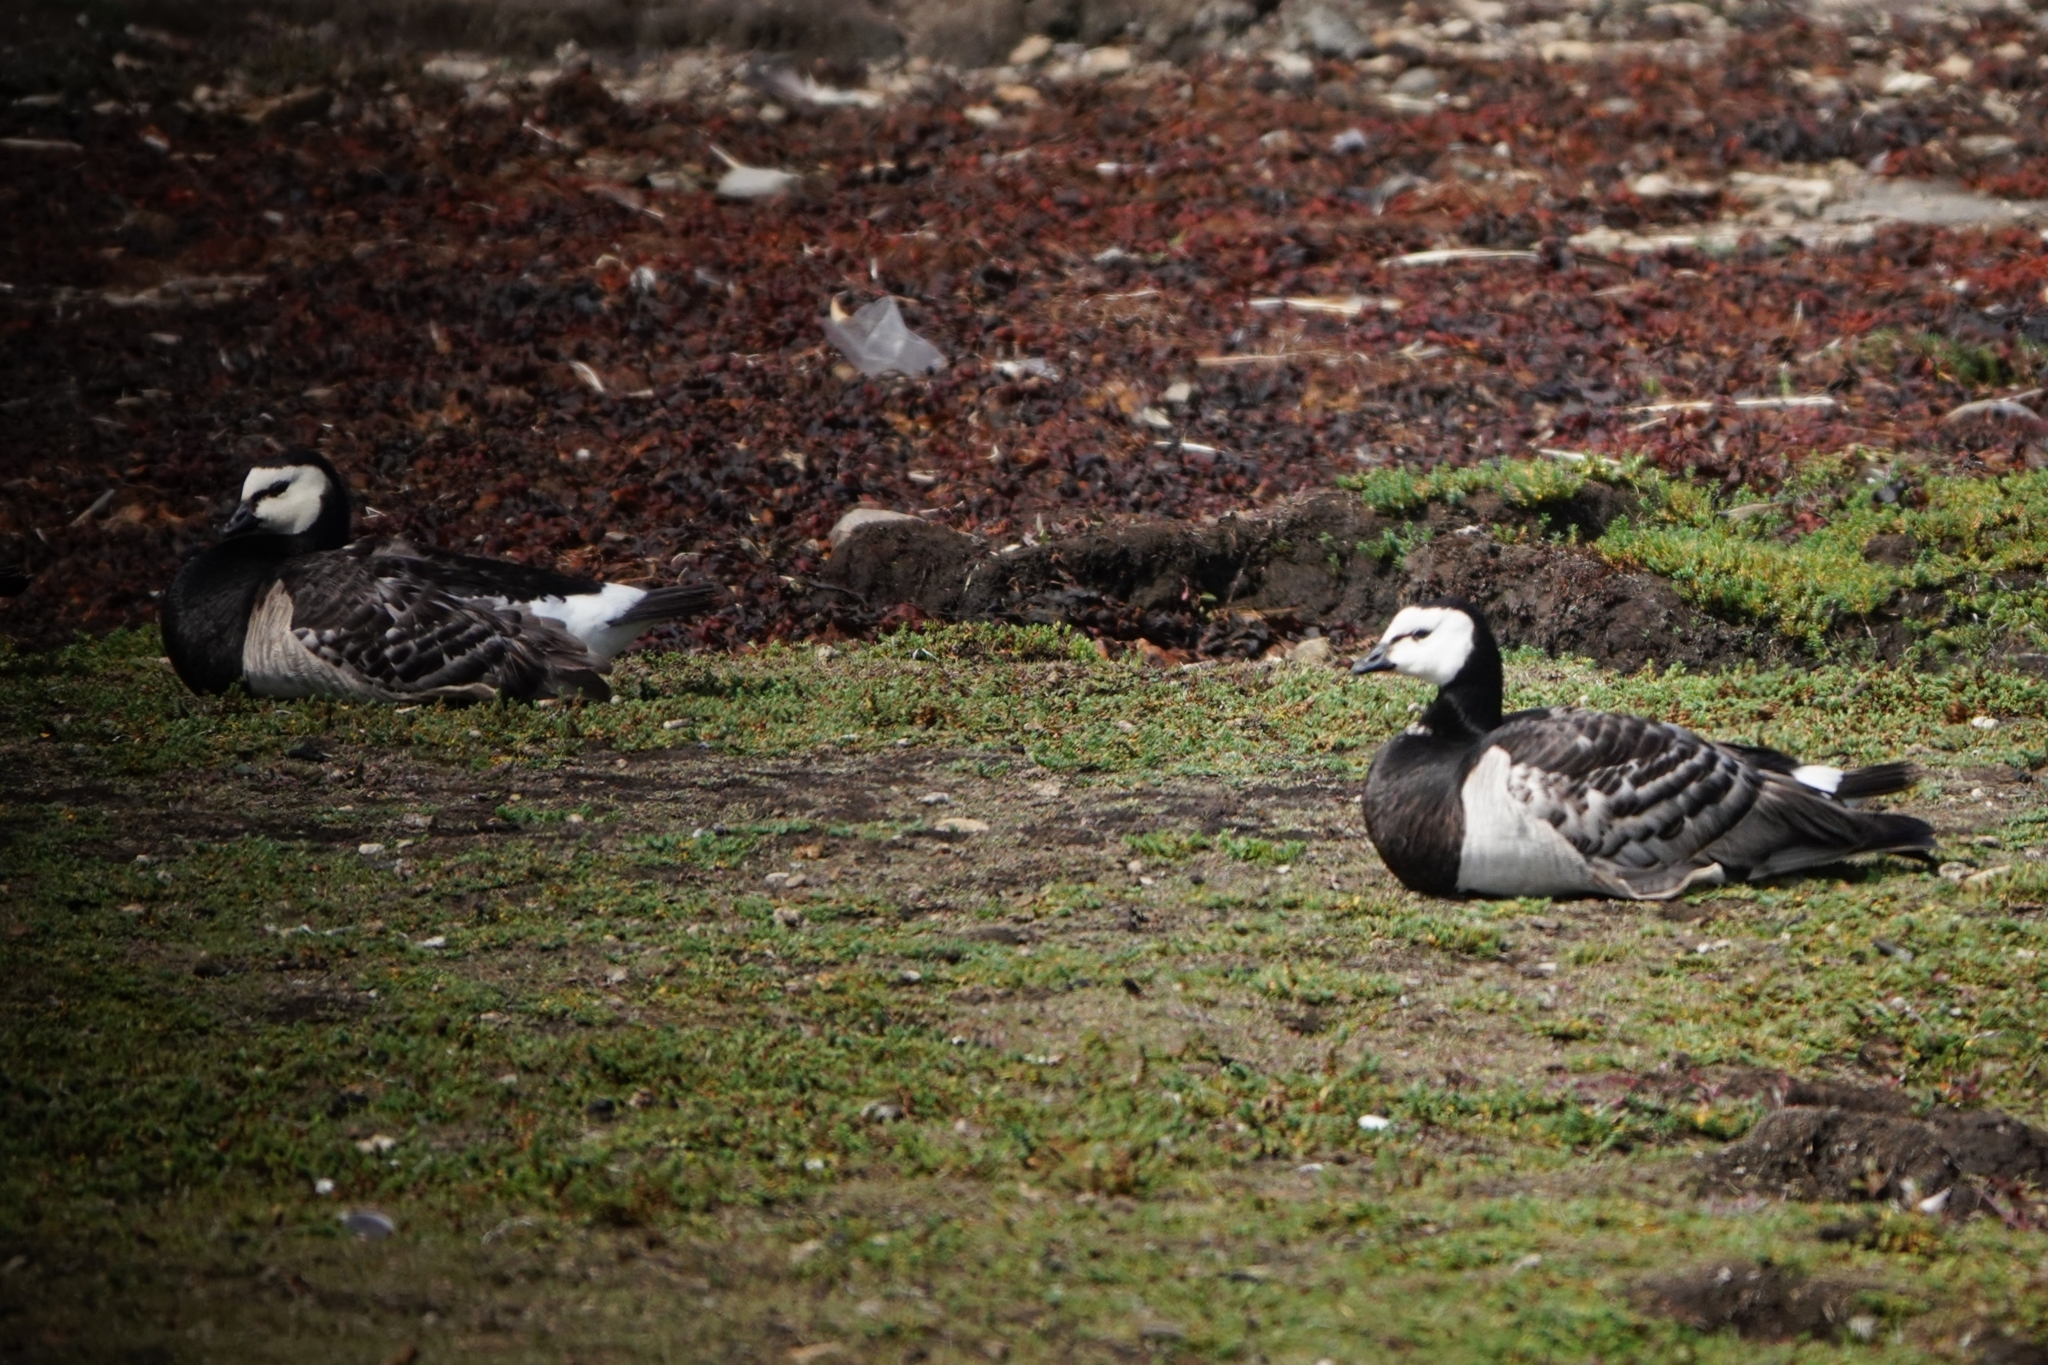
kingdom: Animalia
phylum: Chordata
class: Aves
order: Anseriformes
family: Anatidae
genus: Branta
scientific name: Branta leucopsis
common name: Barnacle goose
